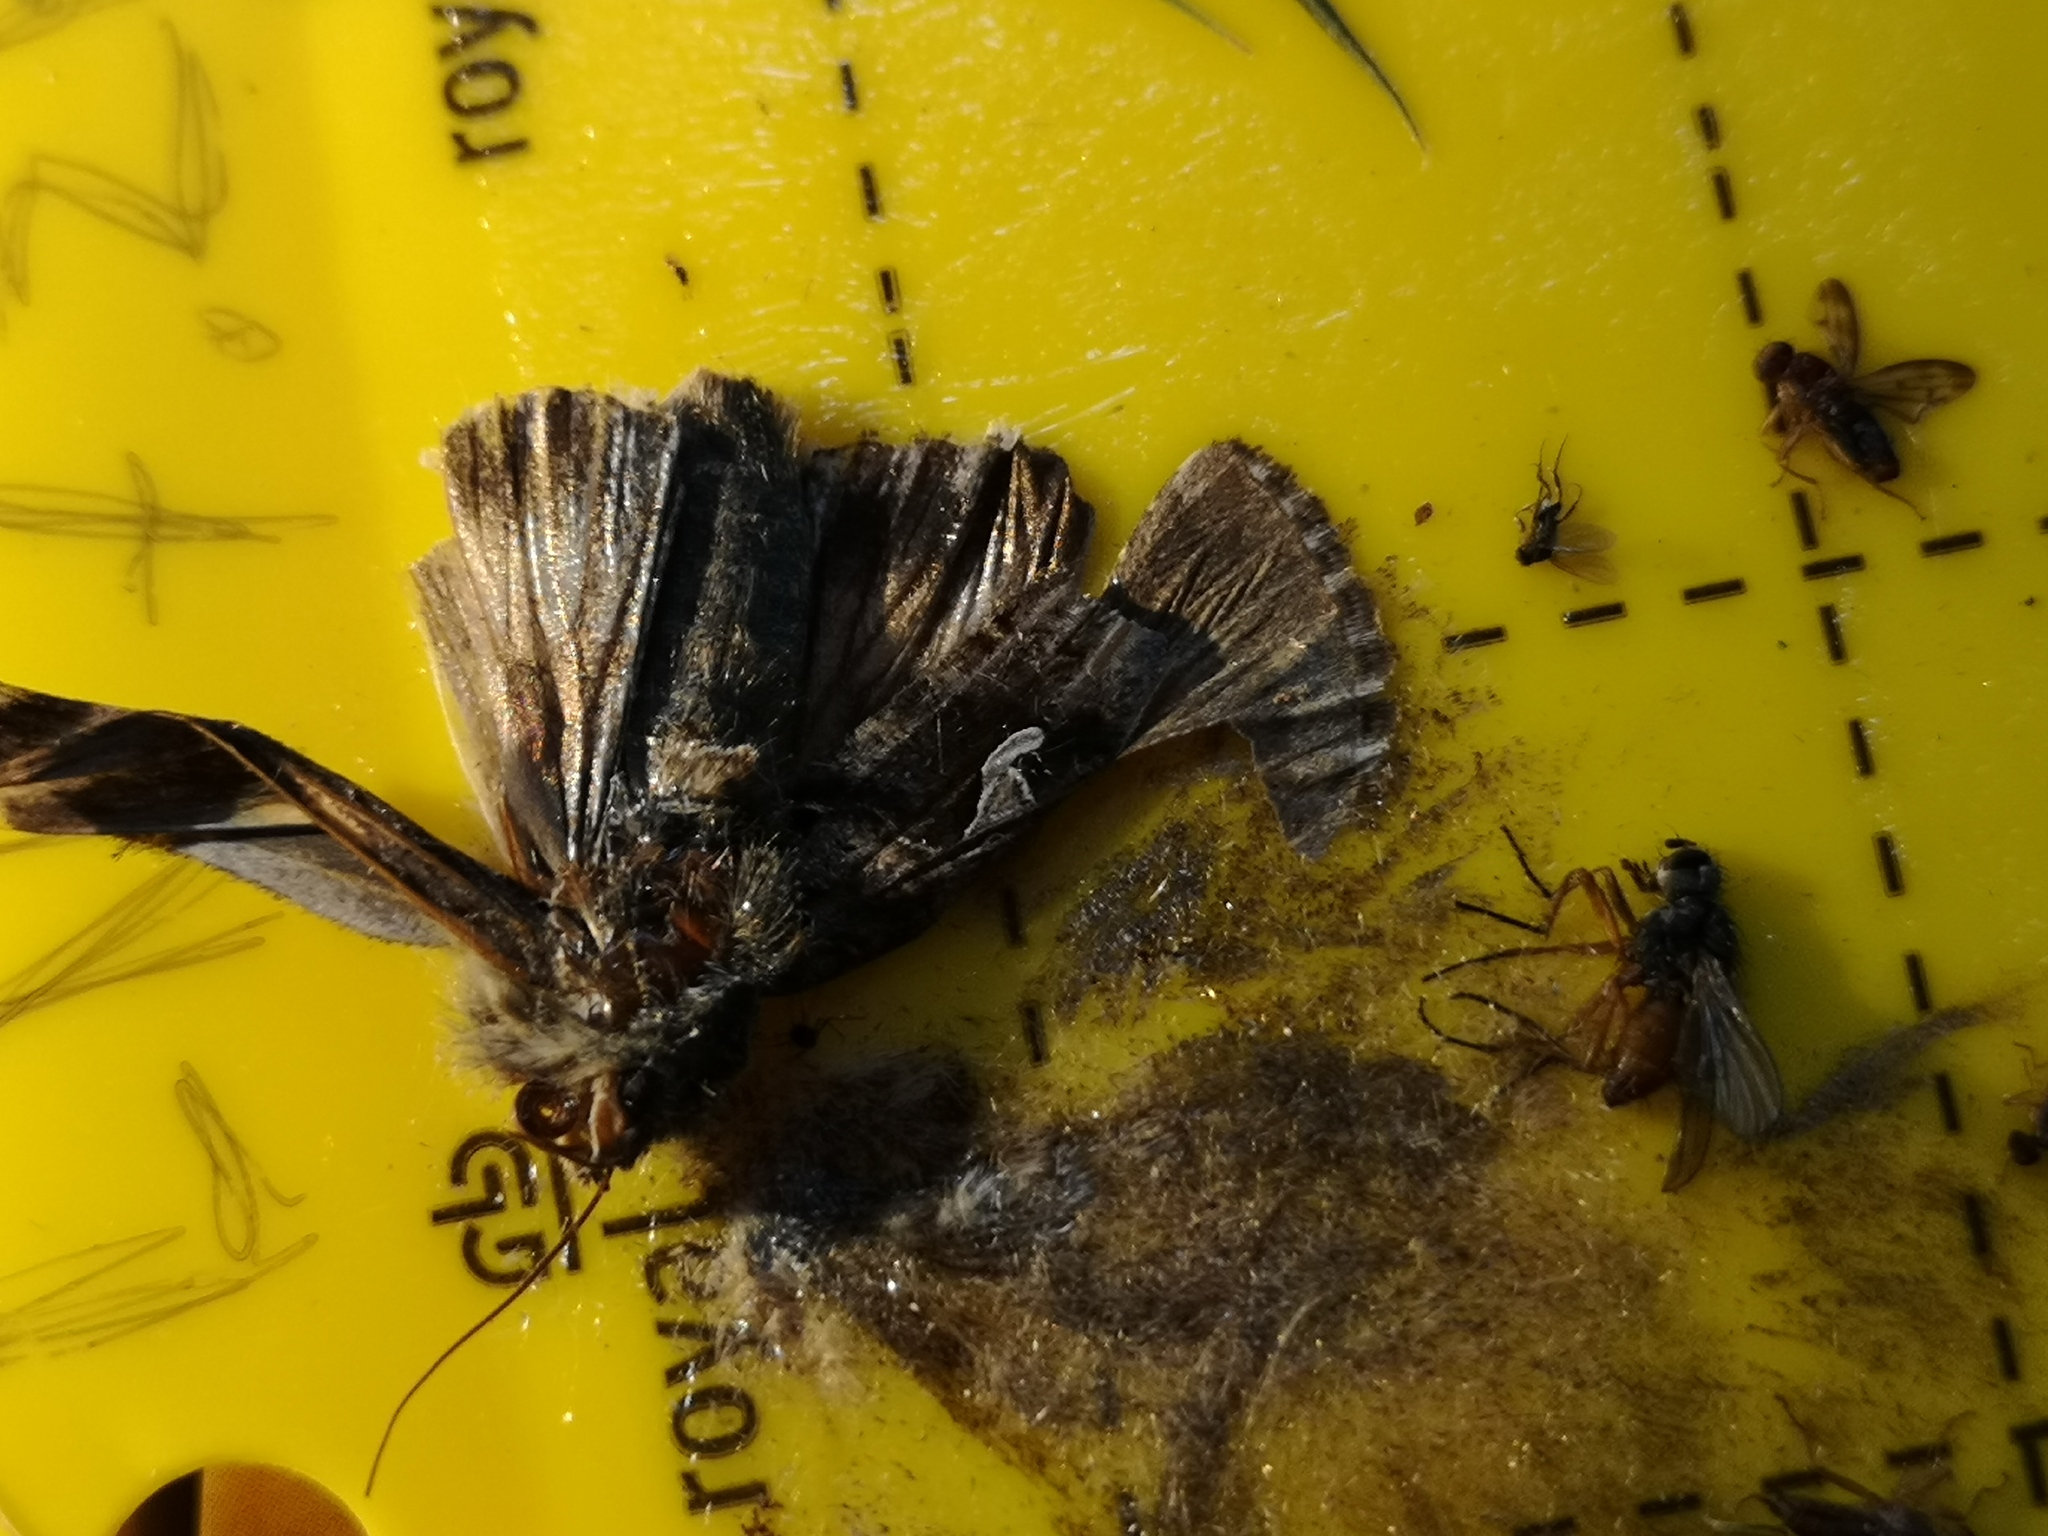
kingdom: Animalia
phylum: Arthropoda
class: Insecta
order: Lepidoptera
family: Noctuidae
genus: Autographa
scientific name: Autographa gamma
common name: Silver y
